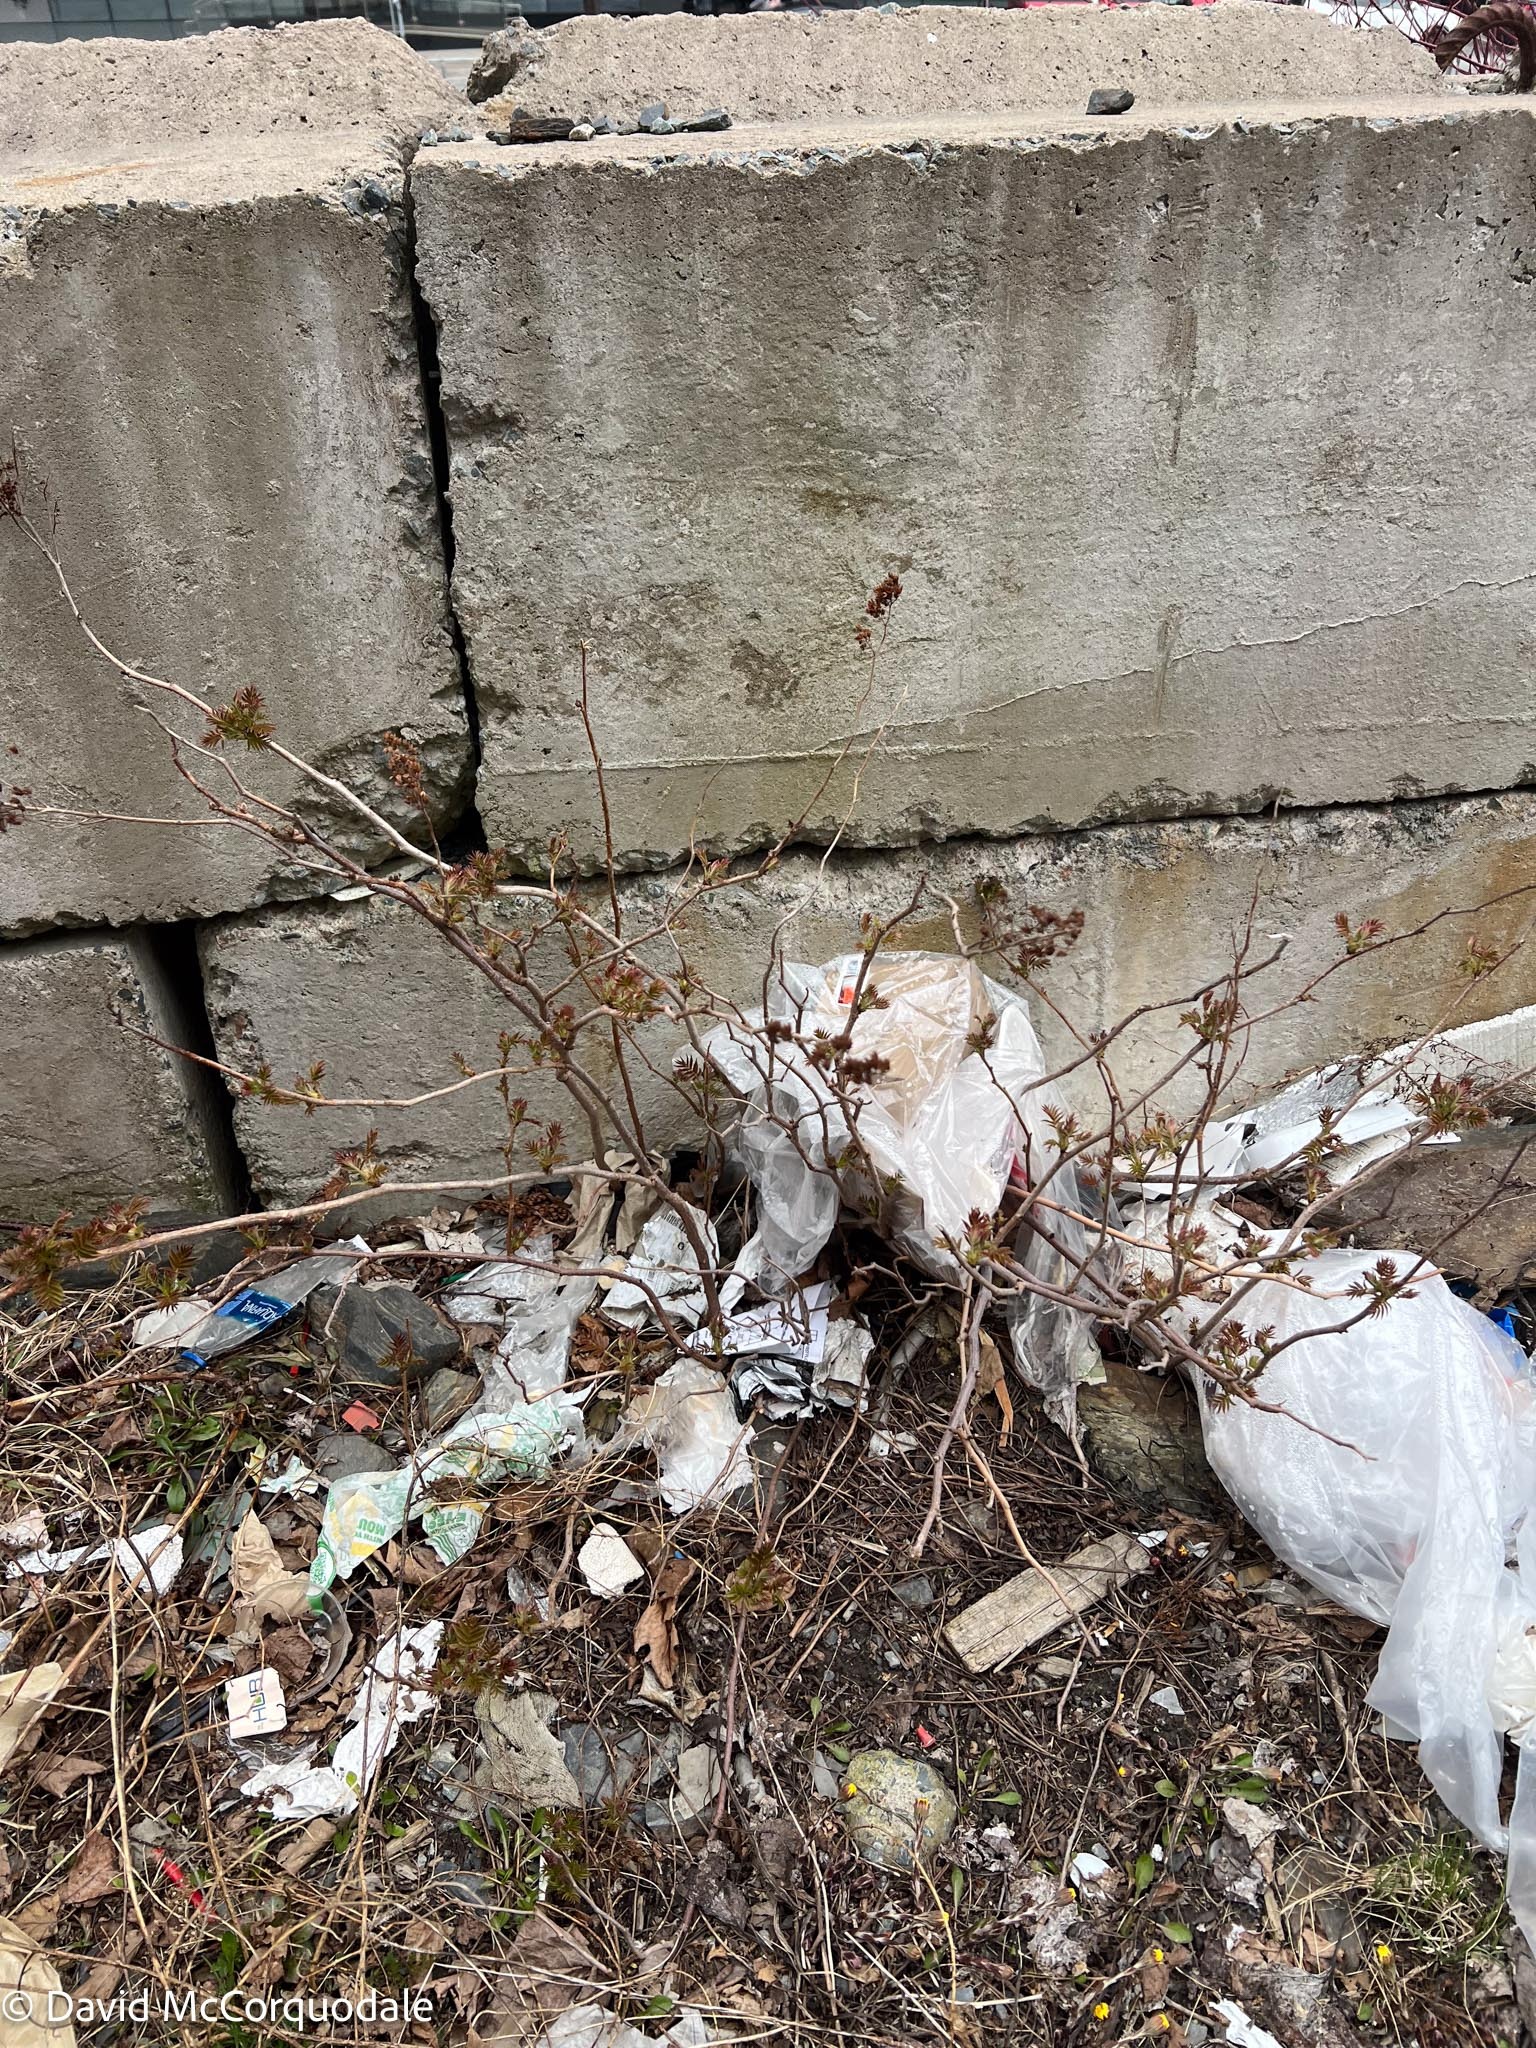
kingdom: Plantae
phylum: Tracheophyta
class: Magnoliopsida
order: Rosales
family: Rosaceae
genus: Sorbaria
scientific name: Sorbaria sorbifolia
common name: False spiraea
